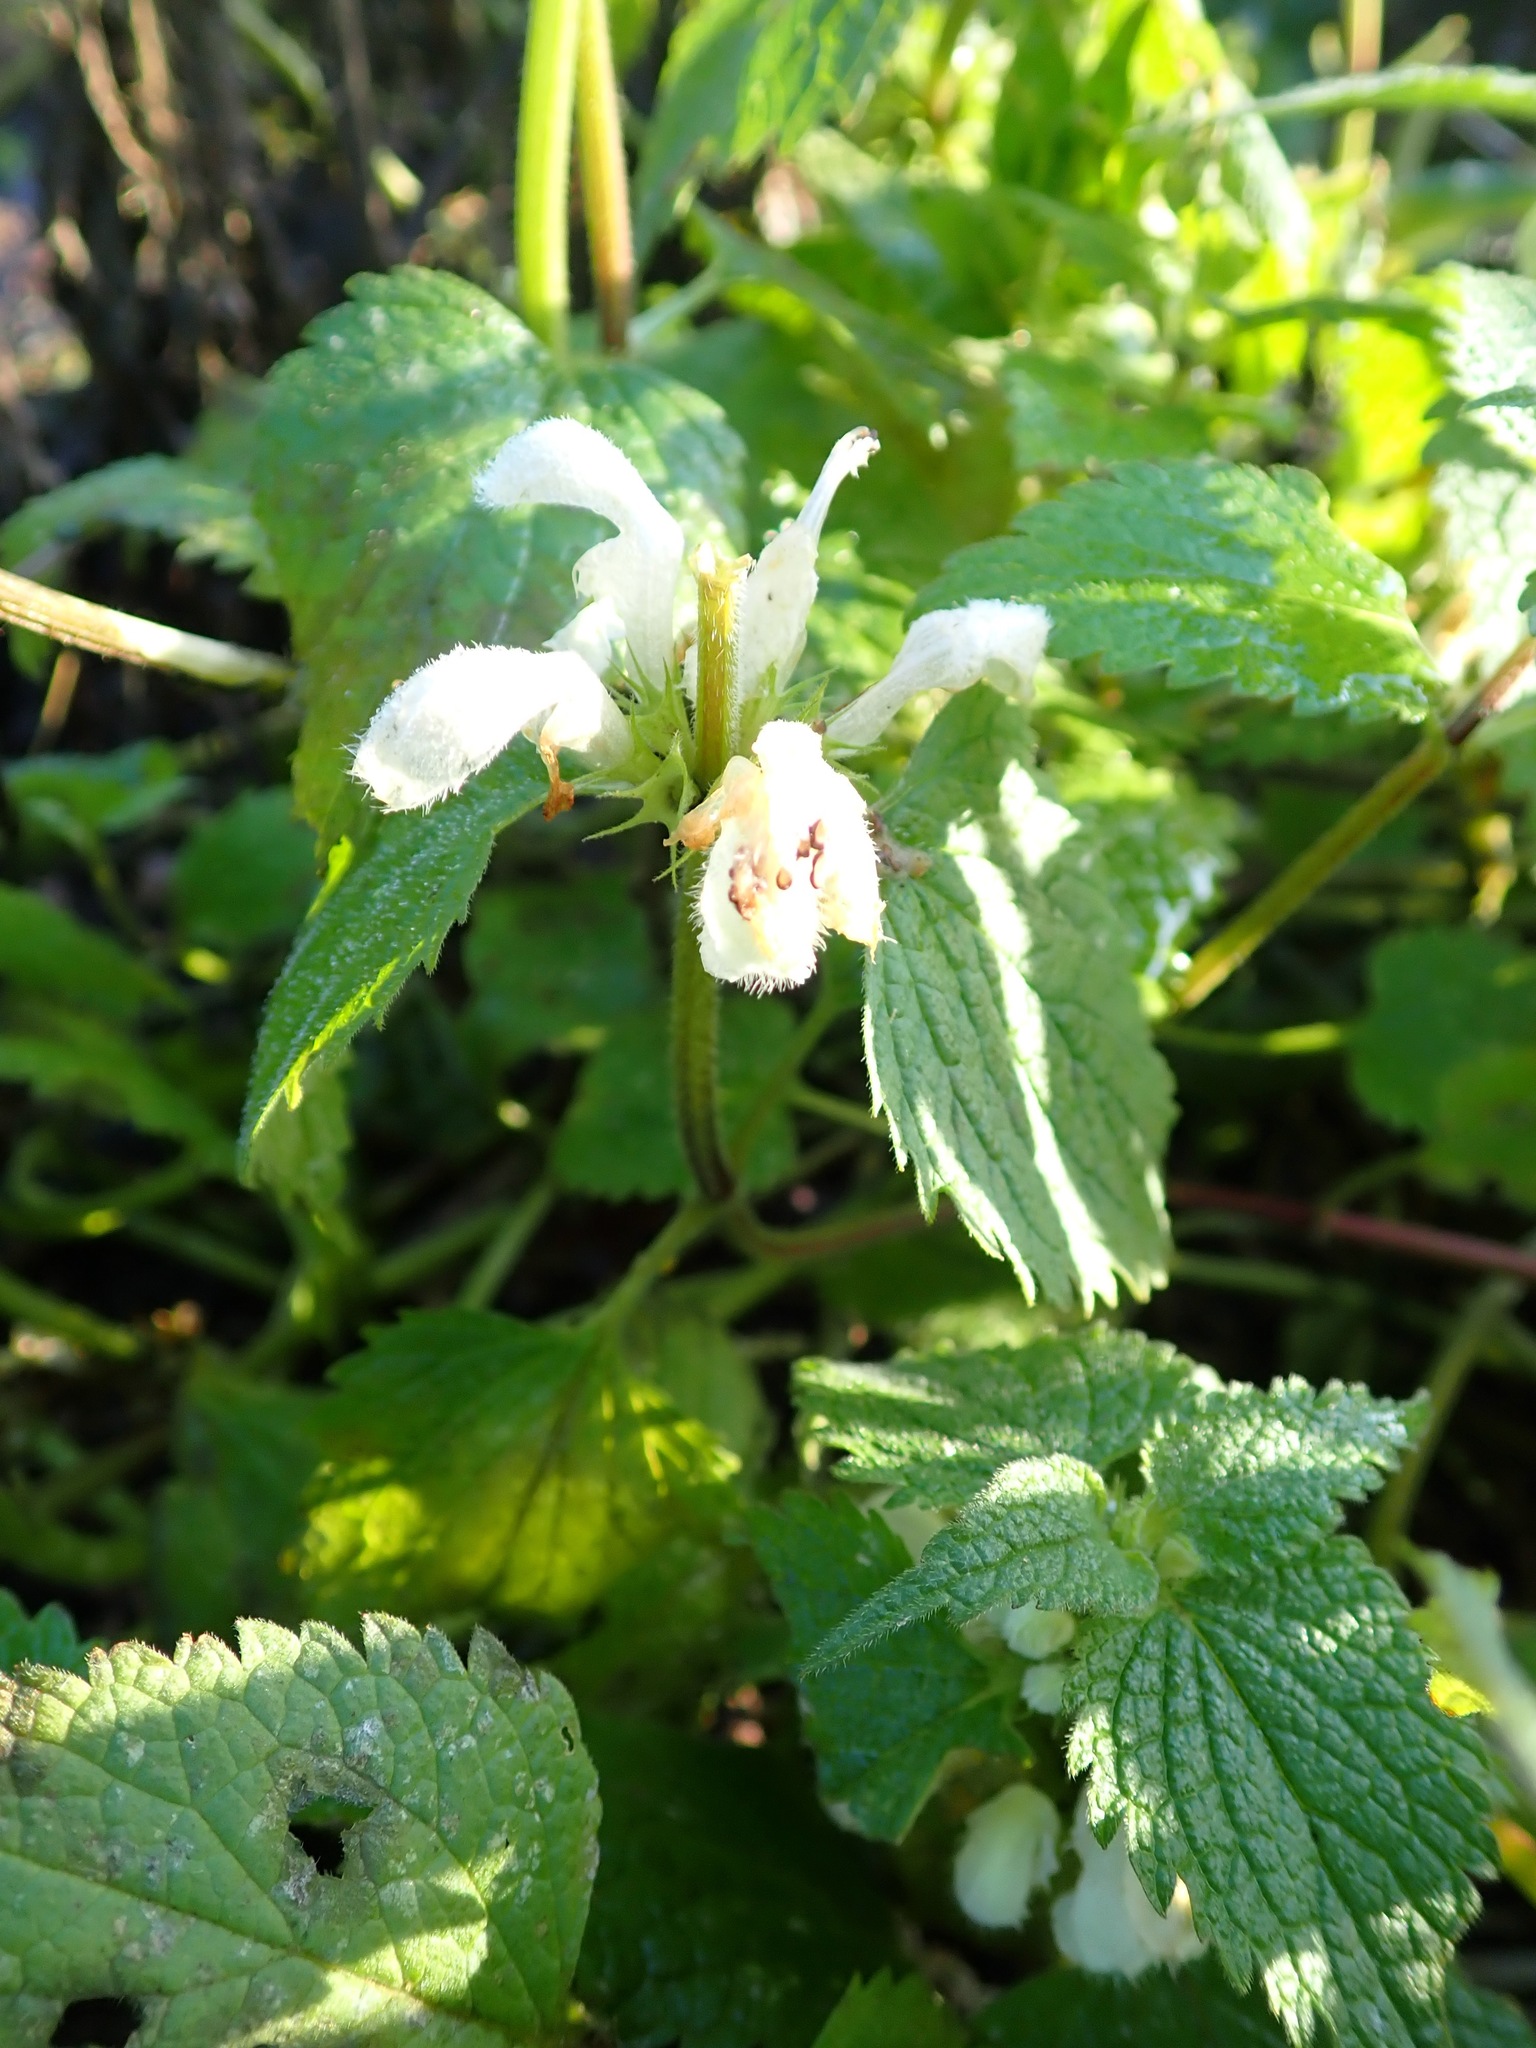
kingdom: Plantae
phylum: Tracheophyta
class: Magnoliopsida
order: Lamiales
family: Lamiaceae
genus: Lamium
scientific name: Lamium album
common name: White dead-nettle
